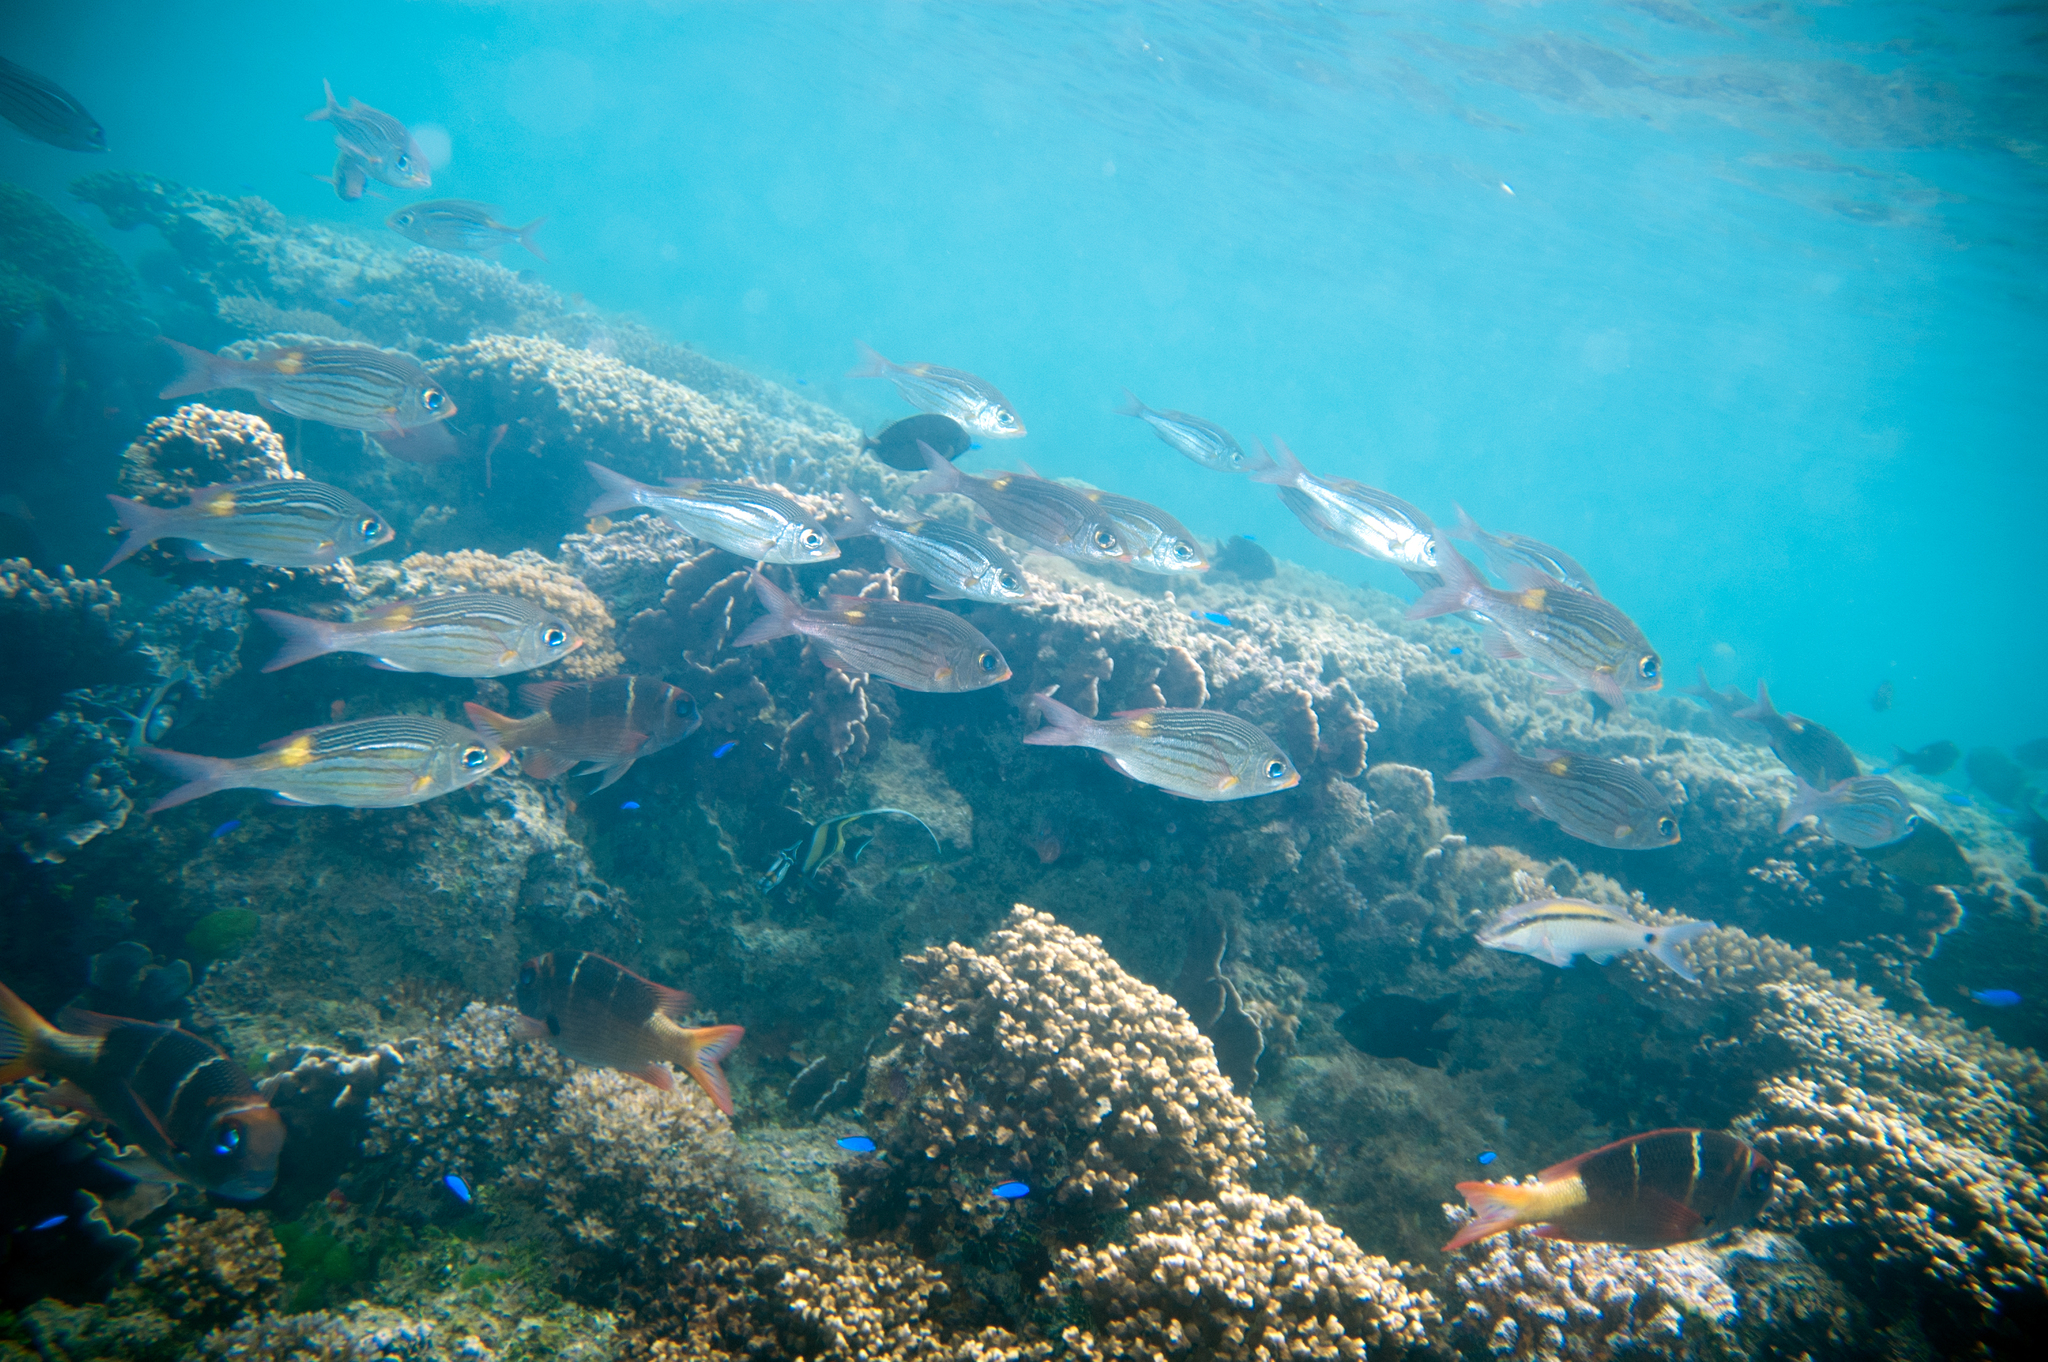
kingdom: Animalia
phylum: Chordata
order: Perciformes
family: Lethrinidae
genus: Monotaxis
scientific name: Monotaxis heterodon
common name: Redfin emperor
